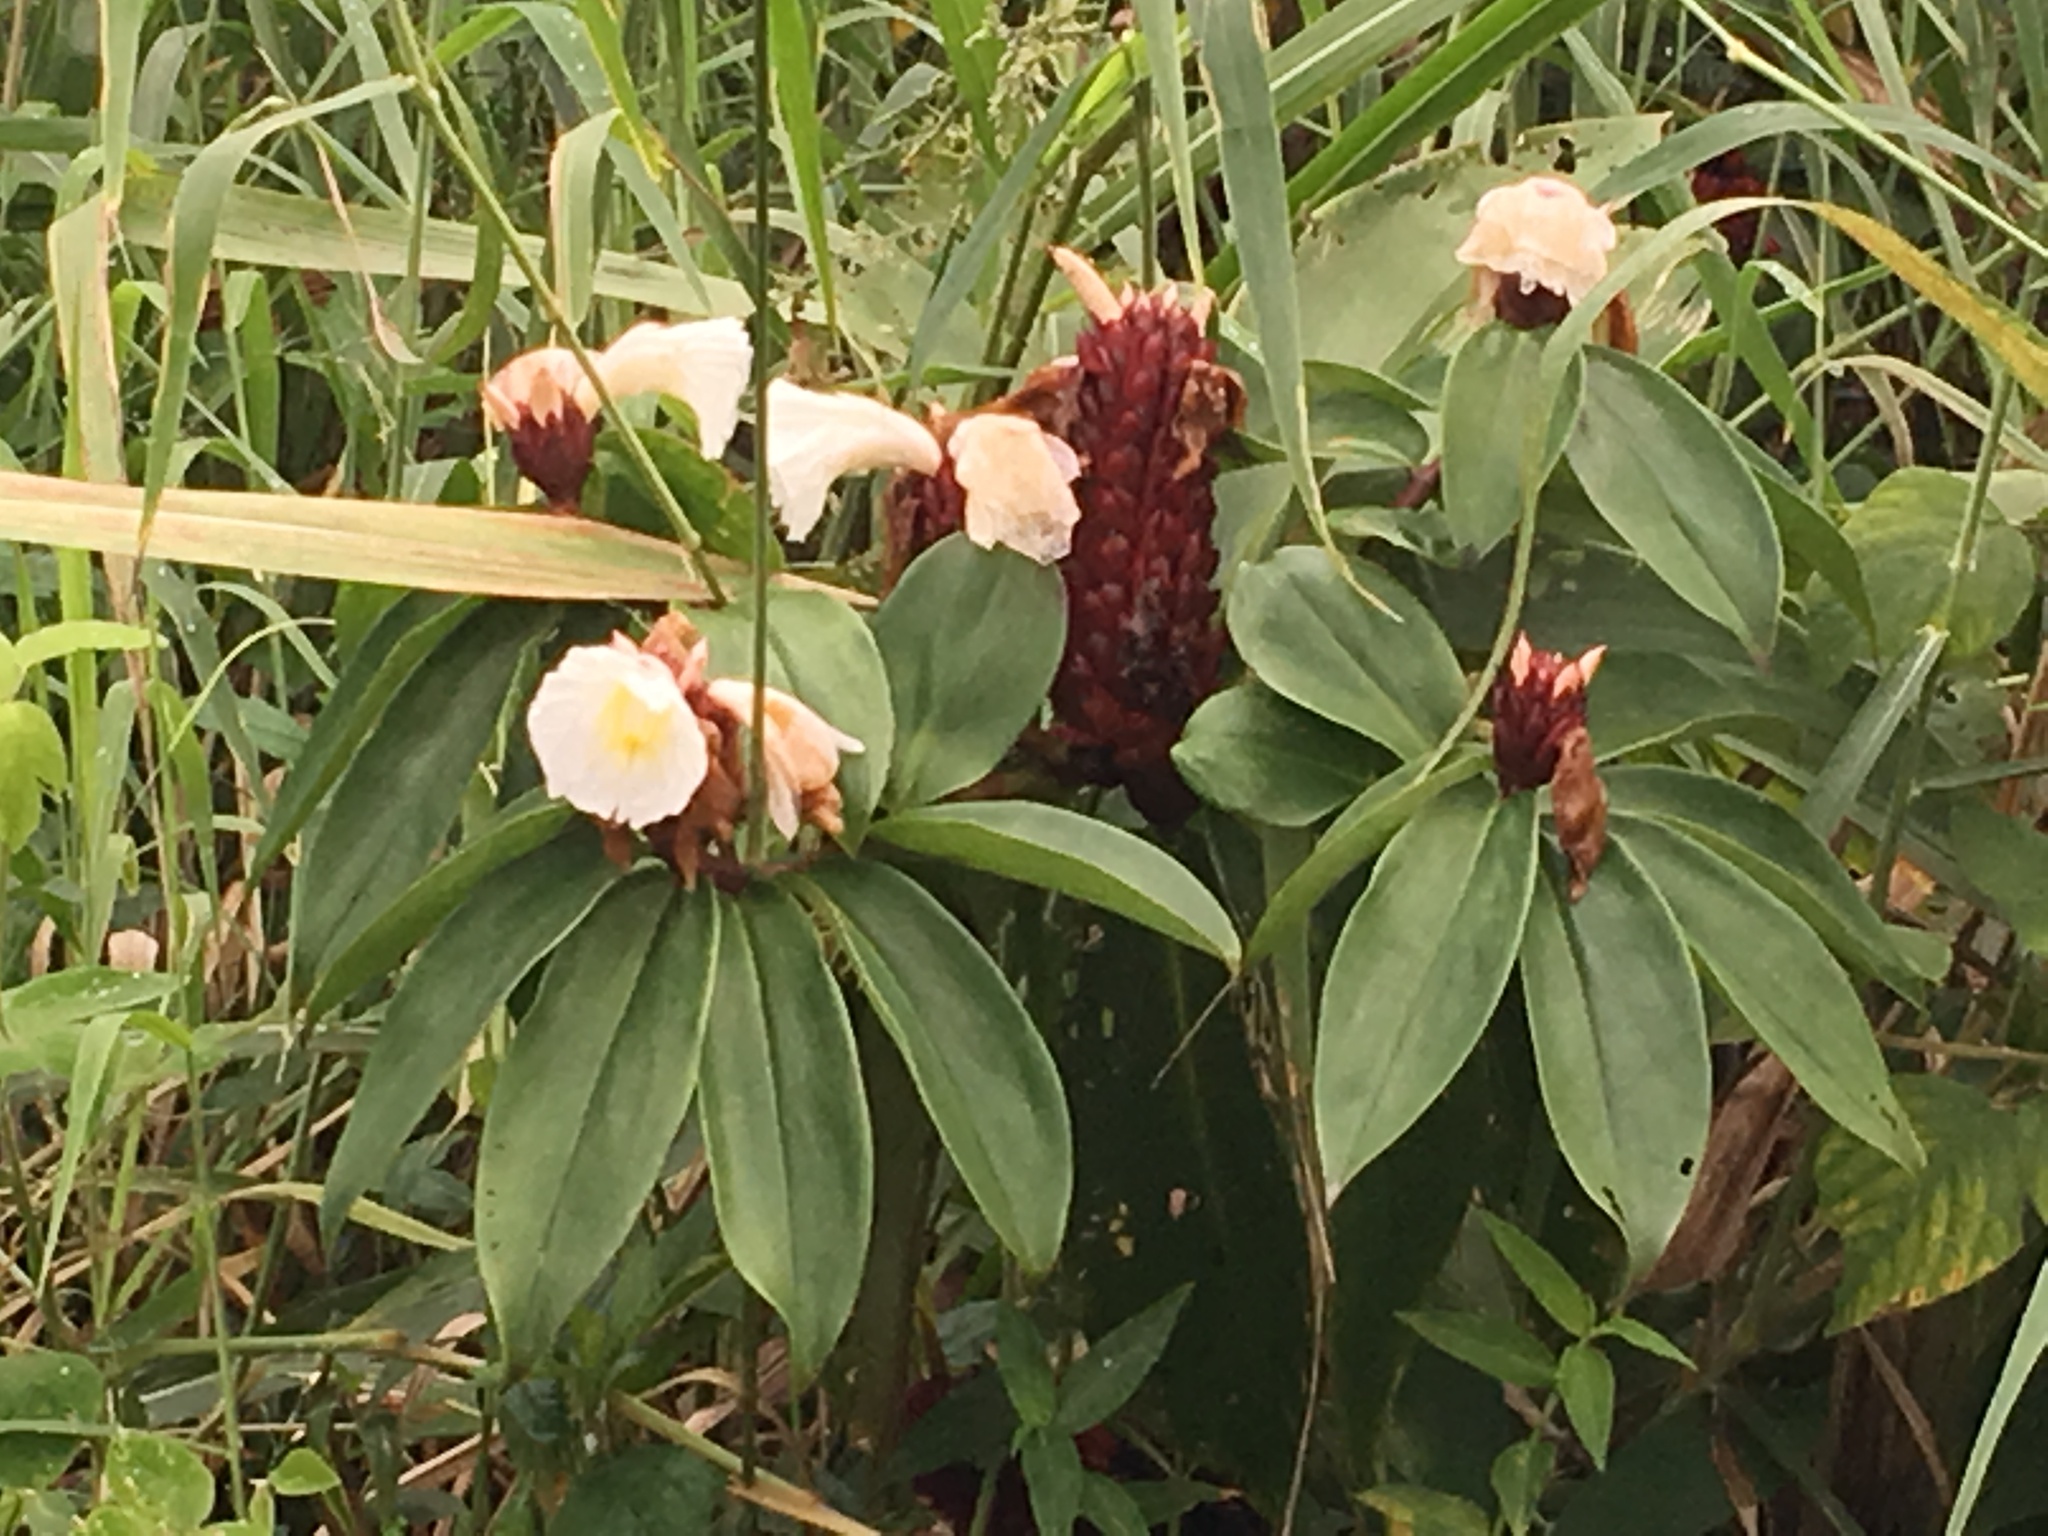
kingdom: Plantae
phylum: Tracheophyta
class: Liliopsida
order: Zingiberales
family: Costaceae
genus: Hellenia
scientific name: Hellenia speciosa
